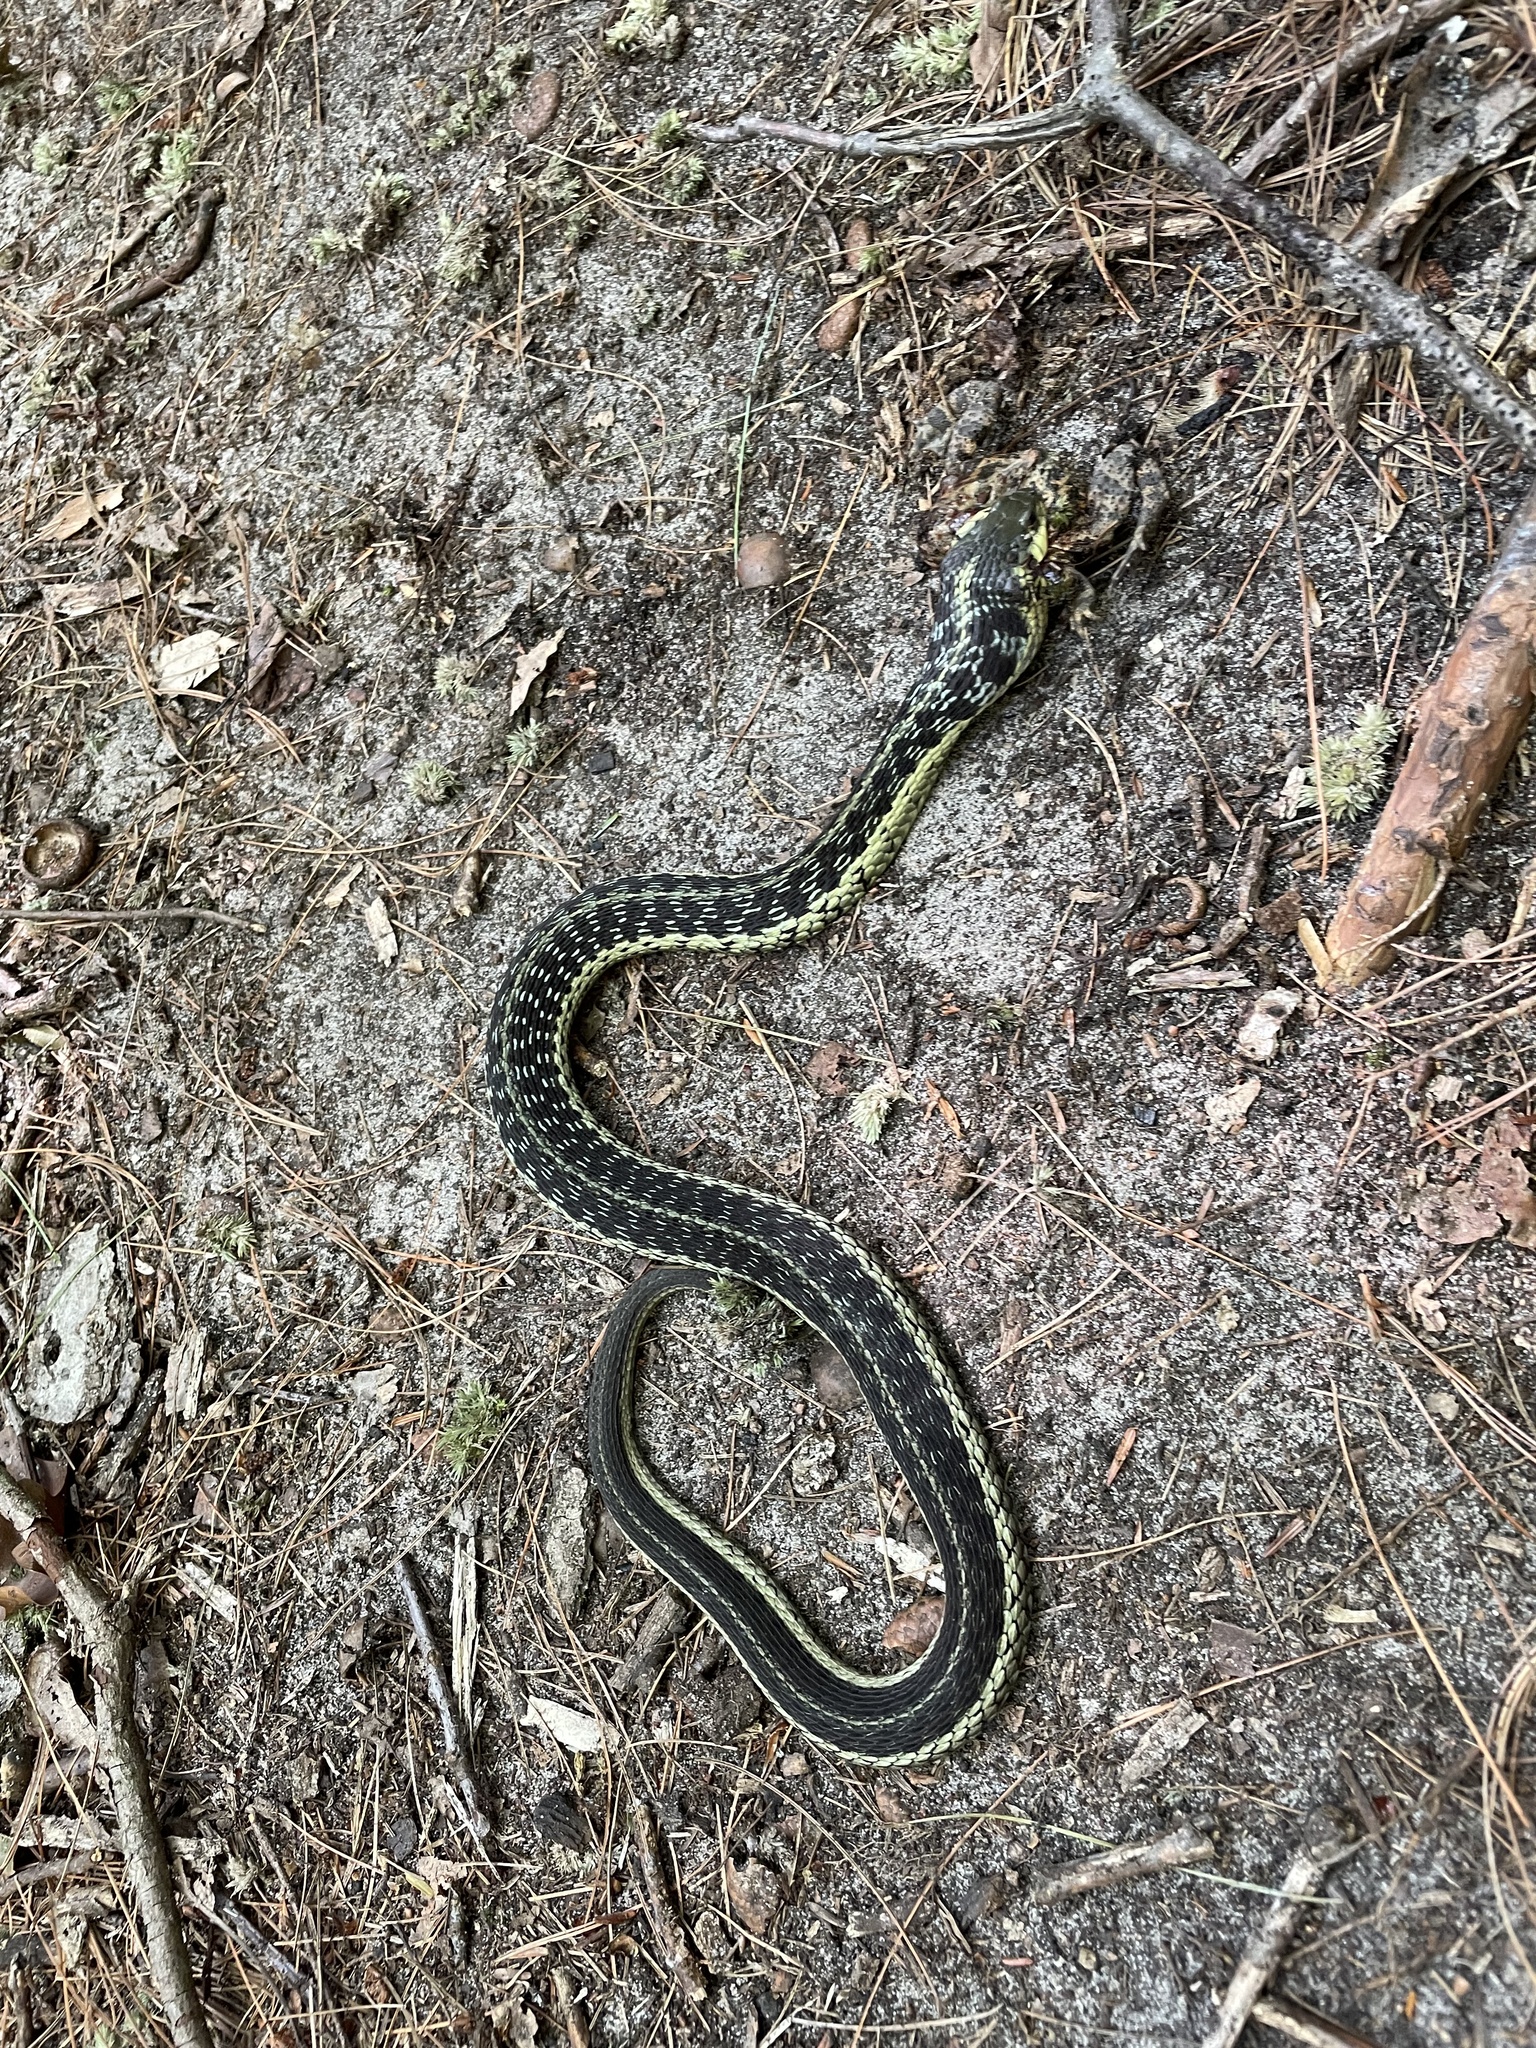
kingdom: Animalia
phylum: Chordata
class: Squamata
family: Colubridae
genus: Thamnophis
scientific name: Thamnophis sirtalis
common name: Common garter snake
